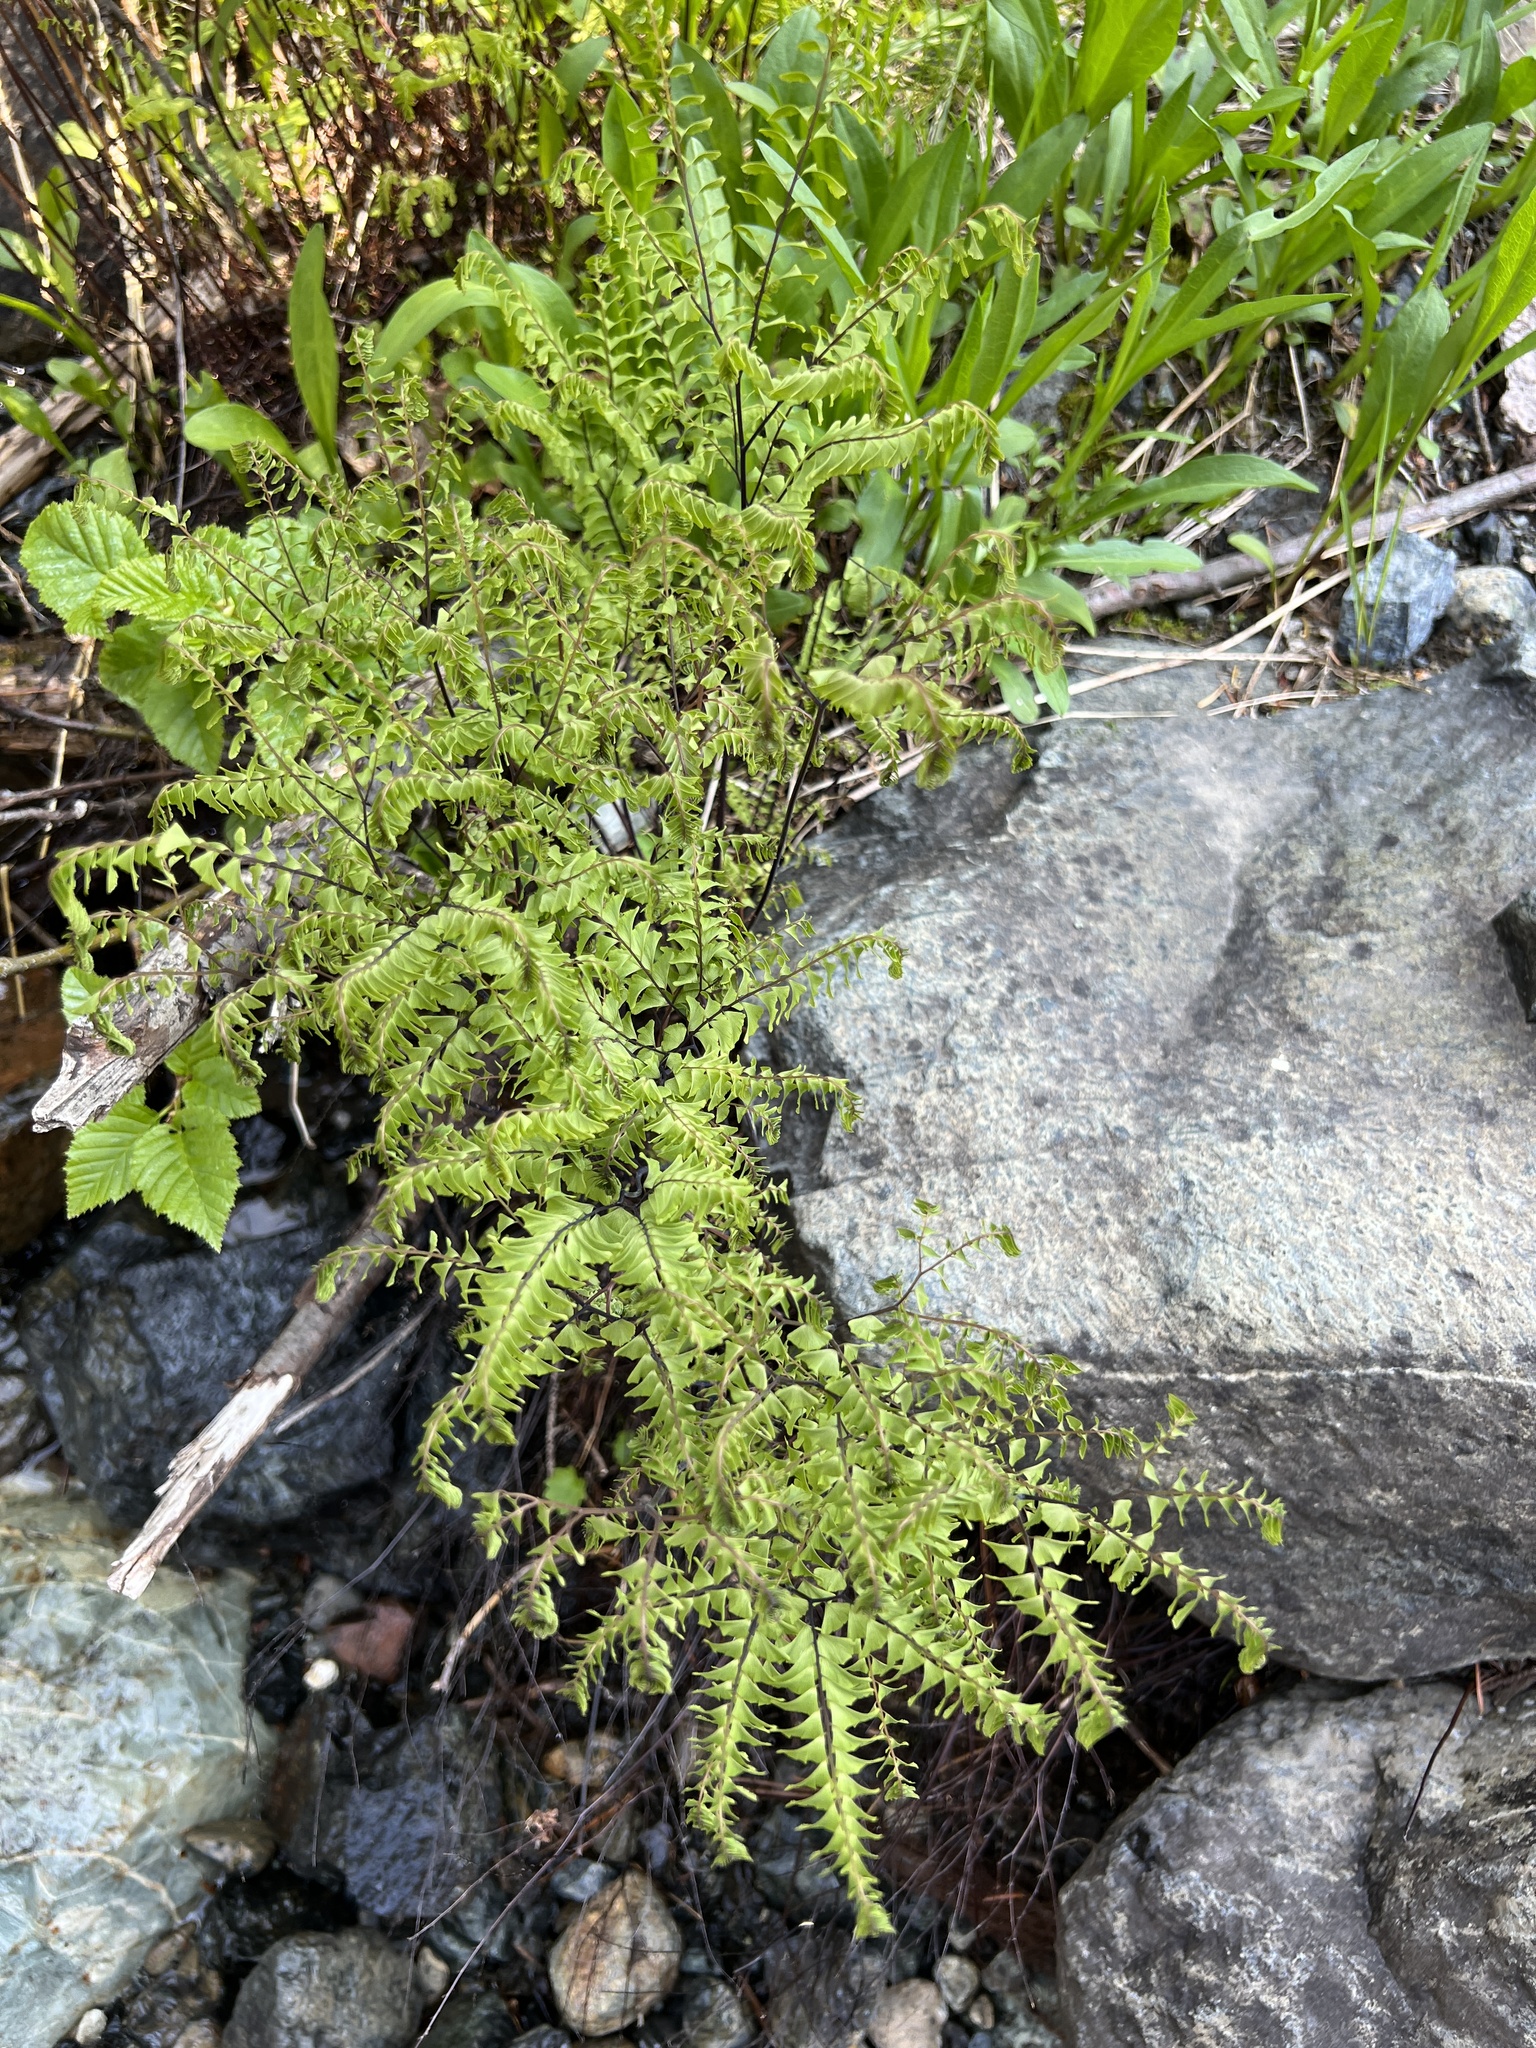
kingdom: Plantae
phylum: Tracheophyta
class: Polypodiopsida
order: Polypodiales
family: Pteridaceae
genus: Adiantum
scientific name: Adiantum aleuticum
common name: Aleutian maidenhair fern
